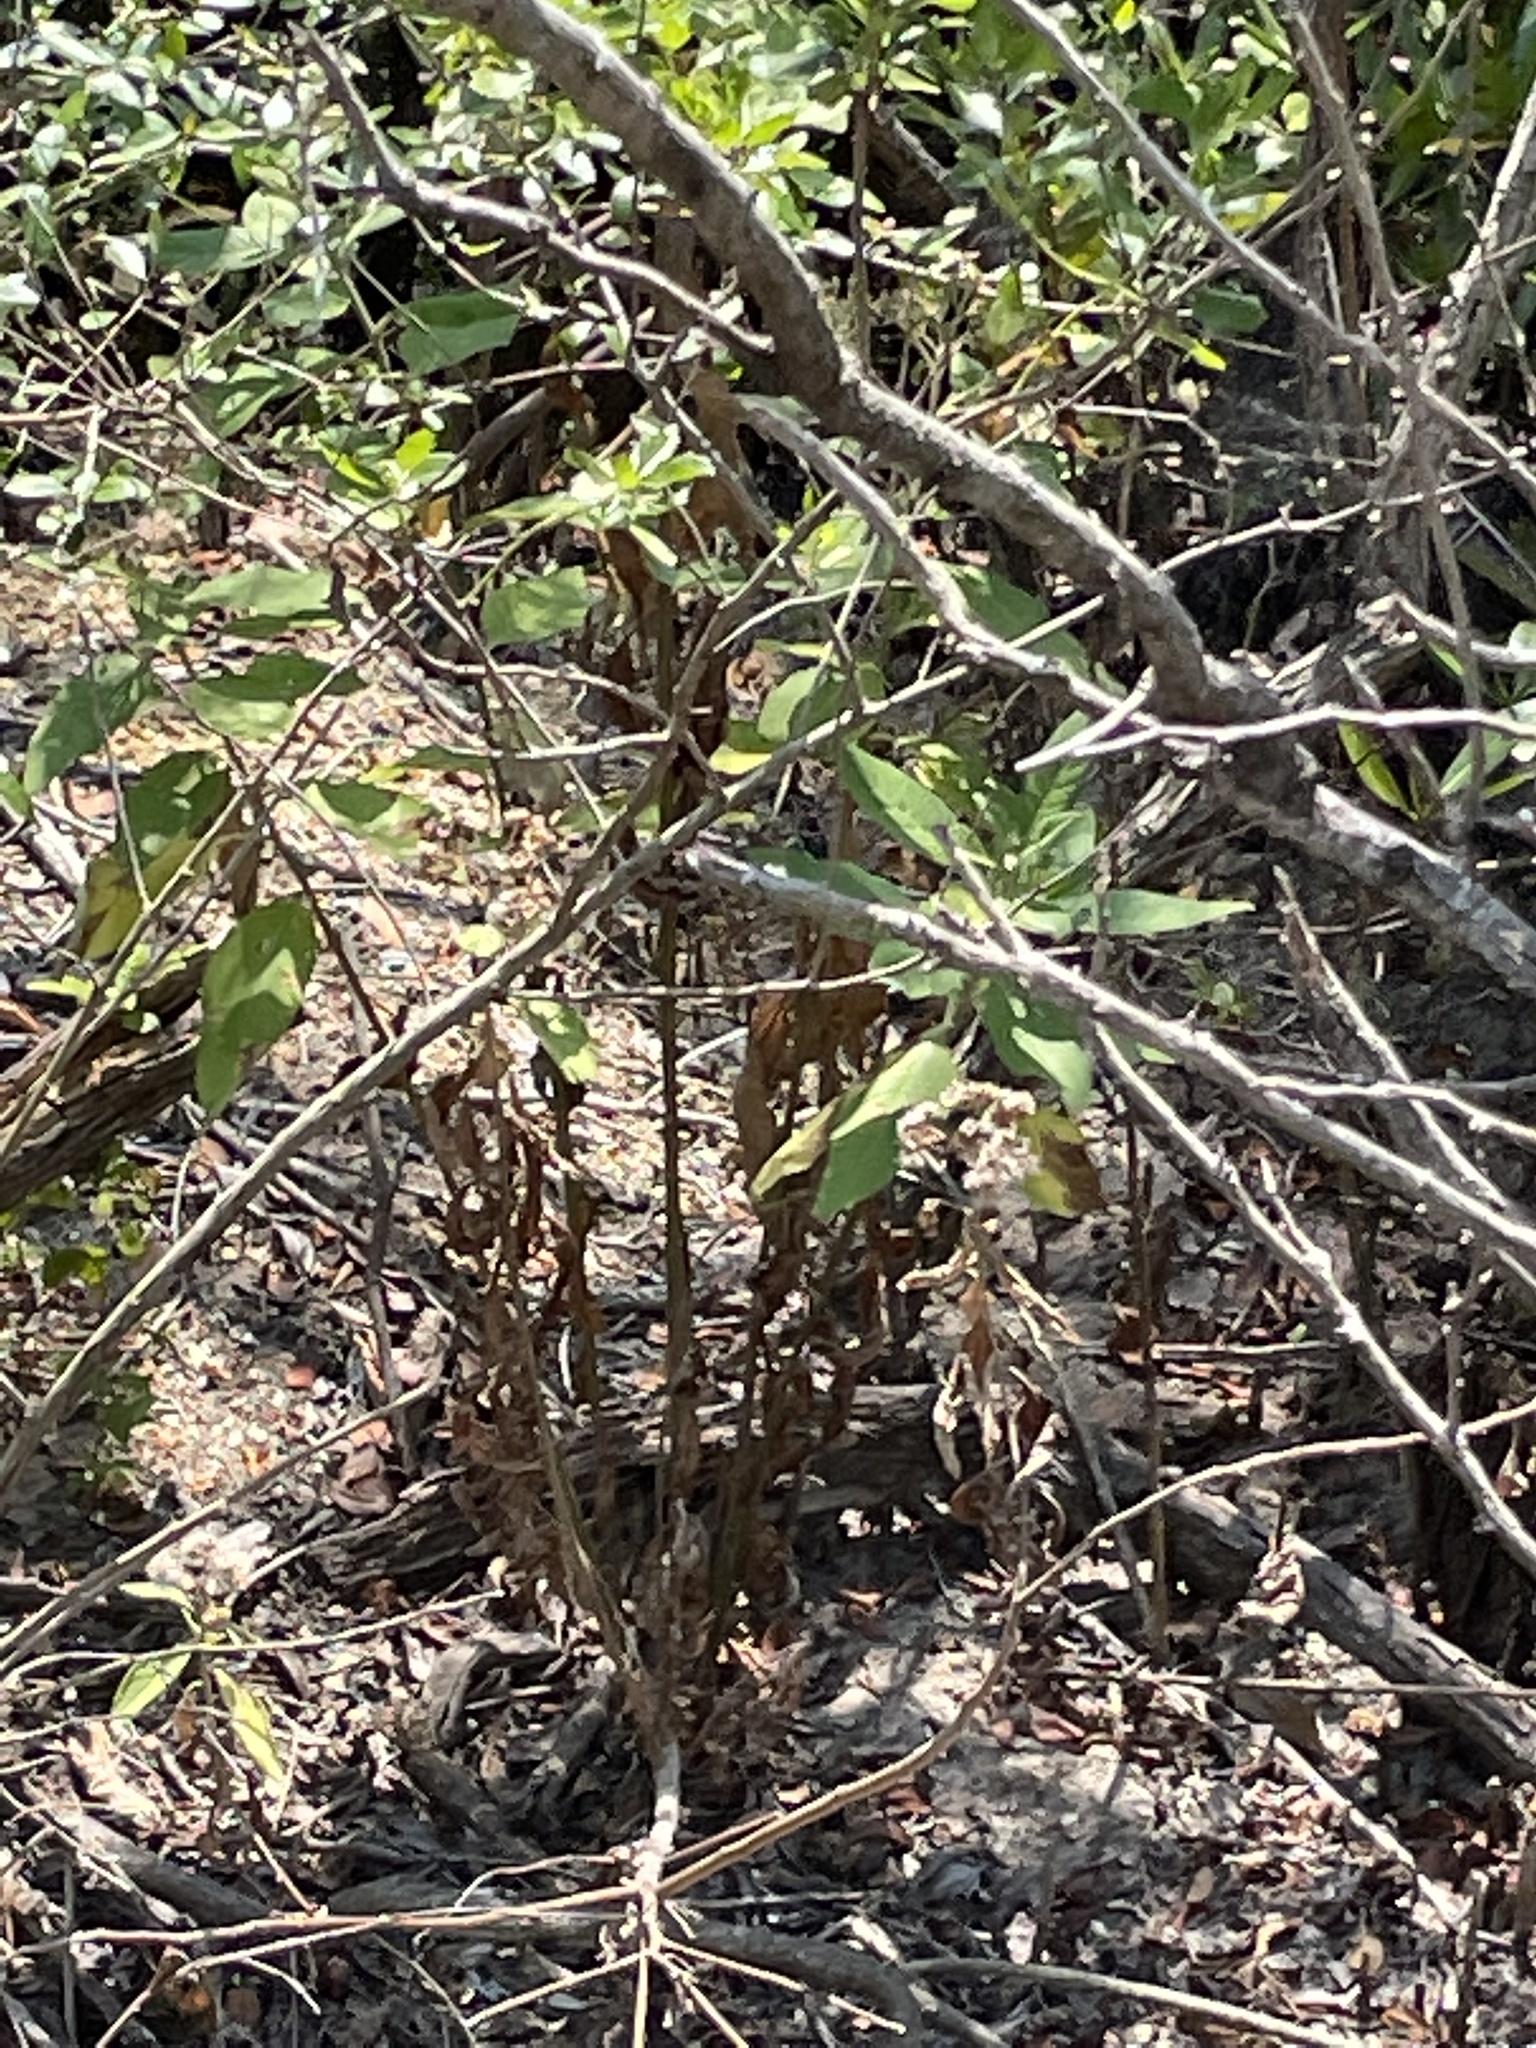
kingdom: Plantae
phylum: Tracheophyta
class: Magnoliopsida
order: Asterales
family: Asteraceae
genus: Pluchea
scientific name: Pluchea carolinensis
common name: Marsh fleabane
